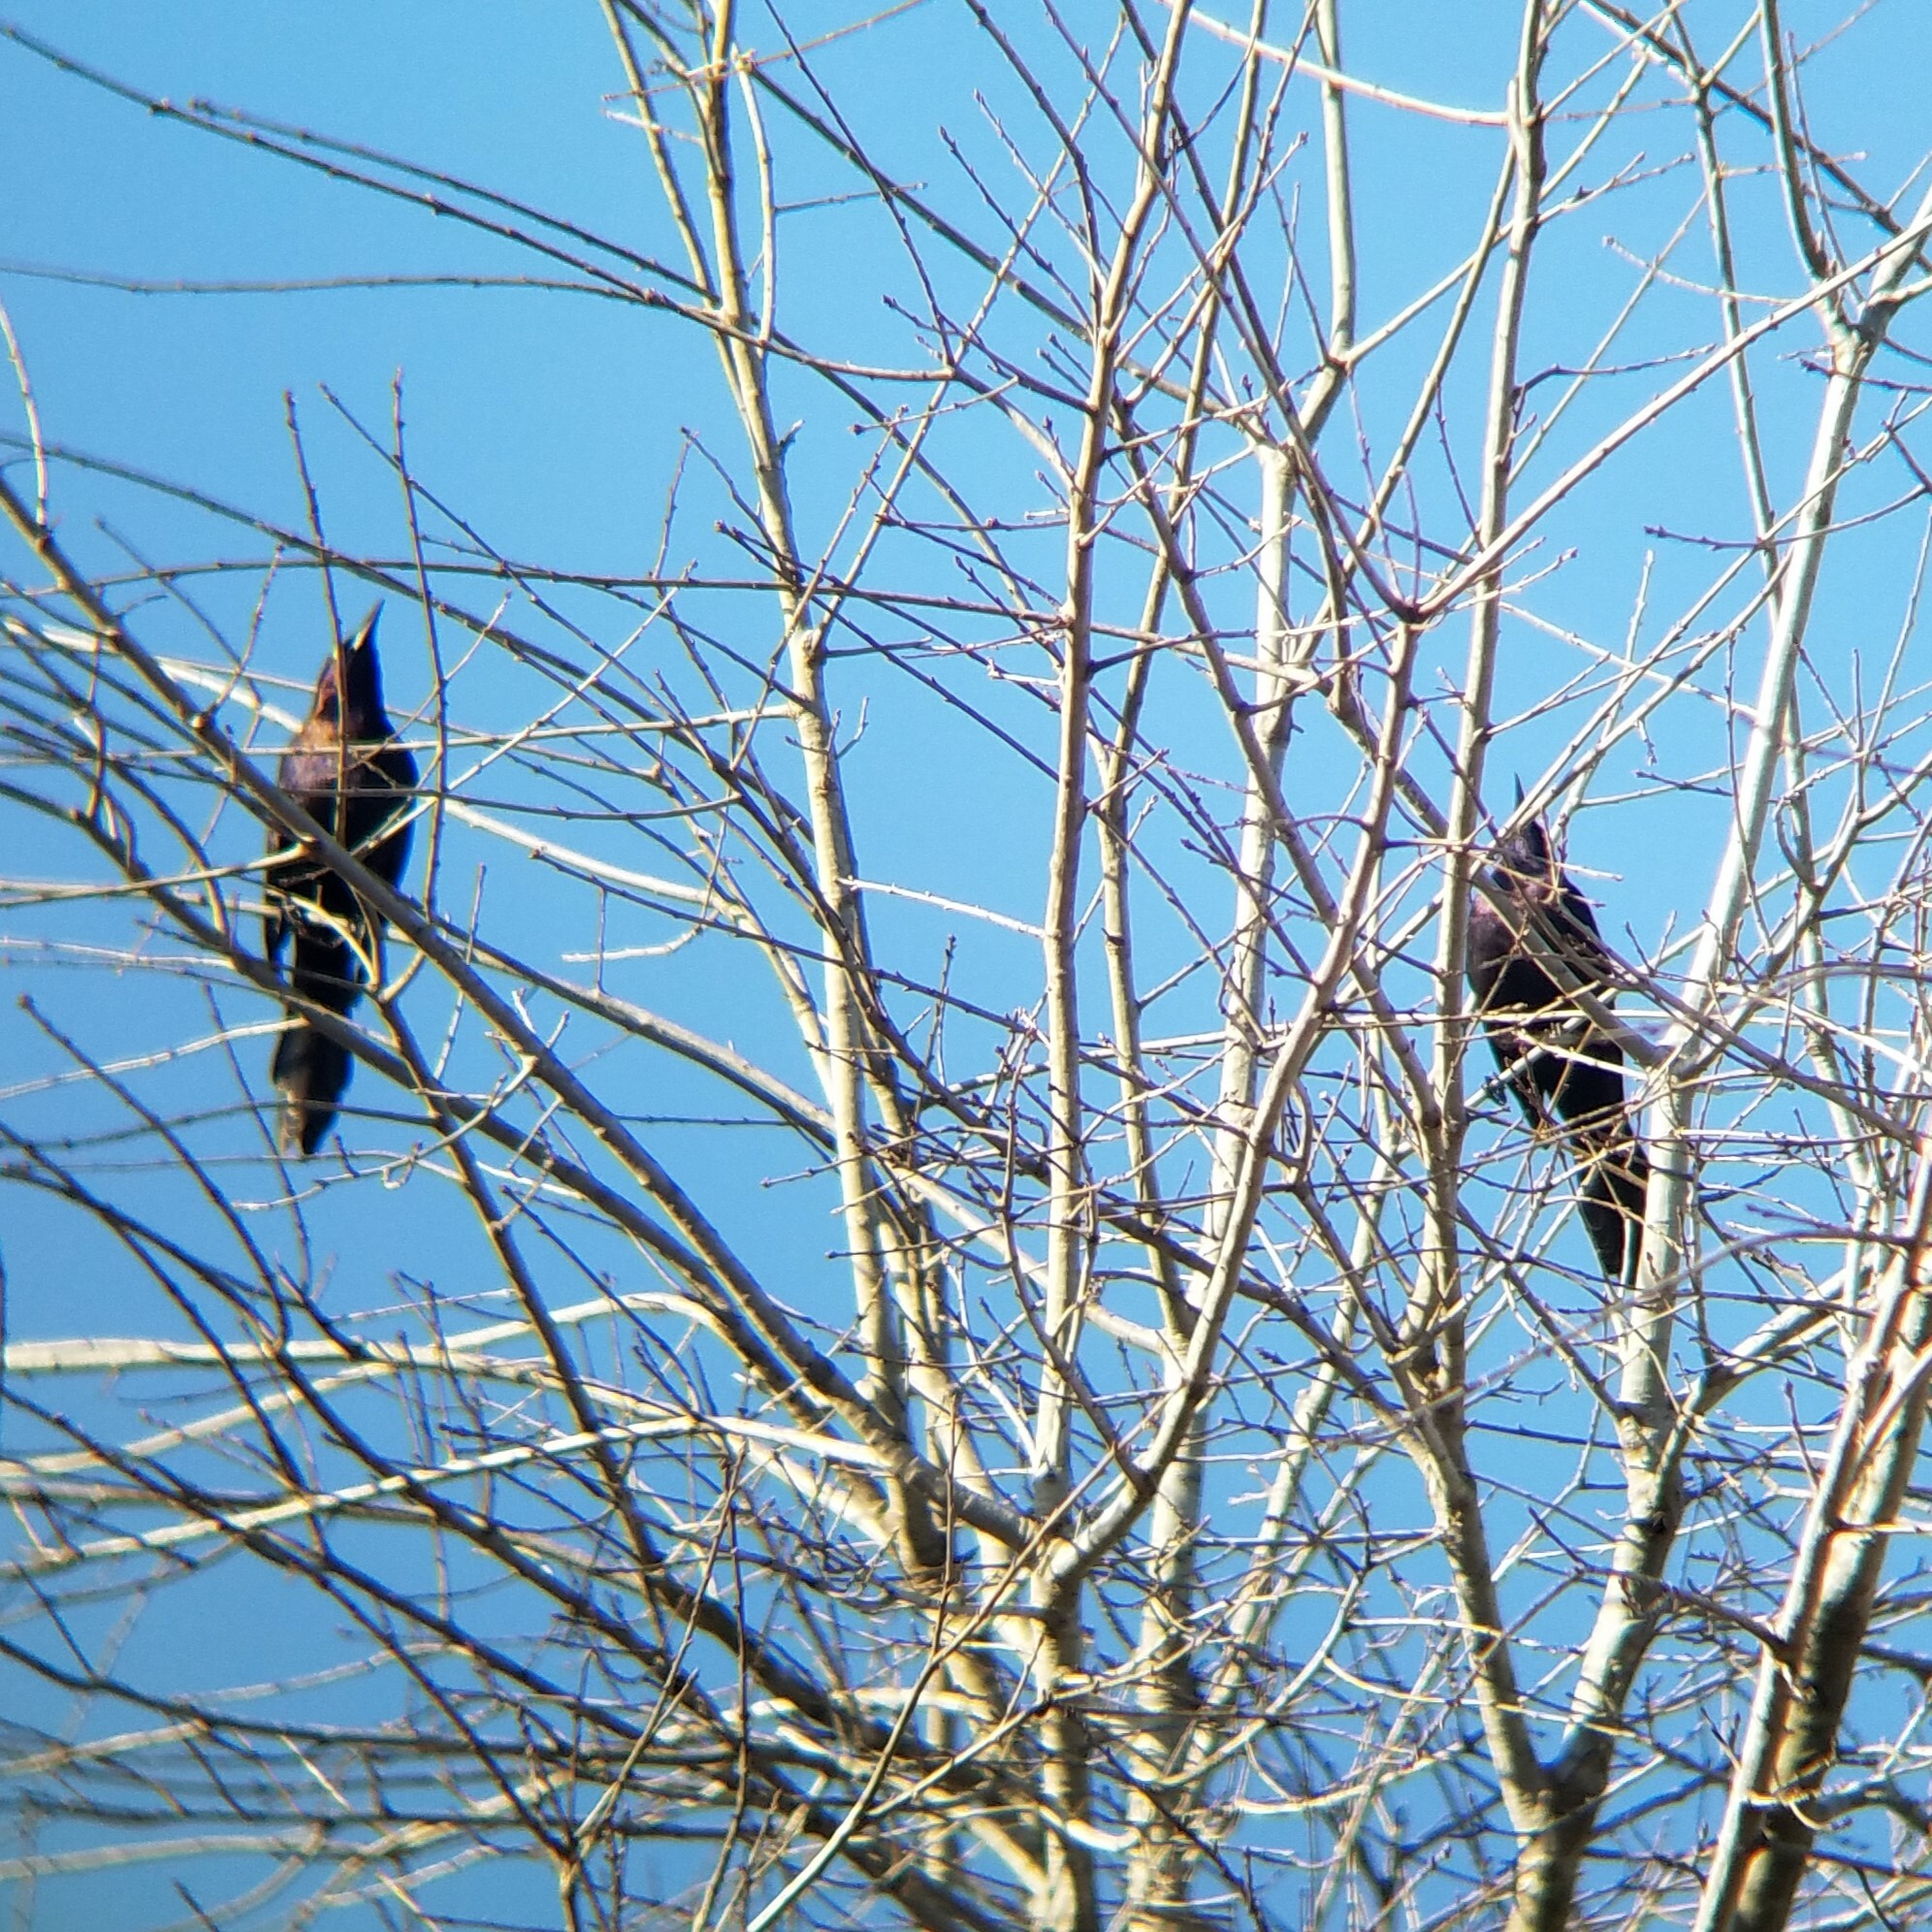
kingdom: Animalia
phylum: Chordata
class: Aves
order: Passeriformes
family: Icteridae
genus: Quiscalus
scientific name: Quiscalus quiscula
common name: Common grackle
